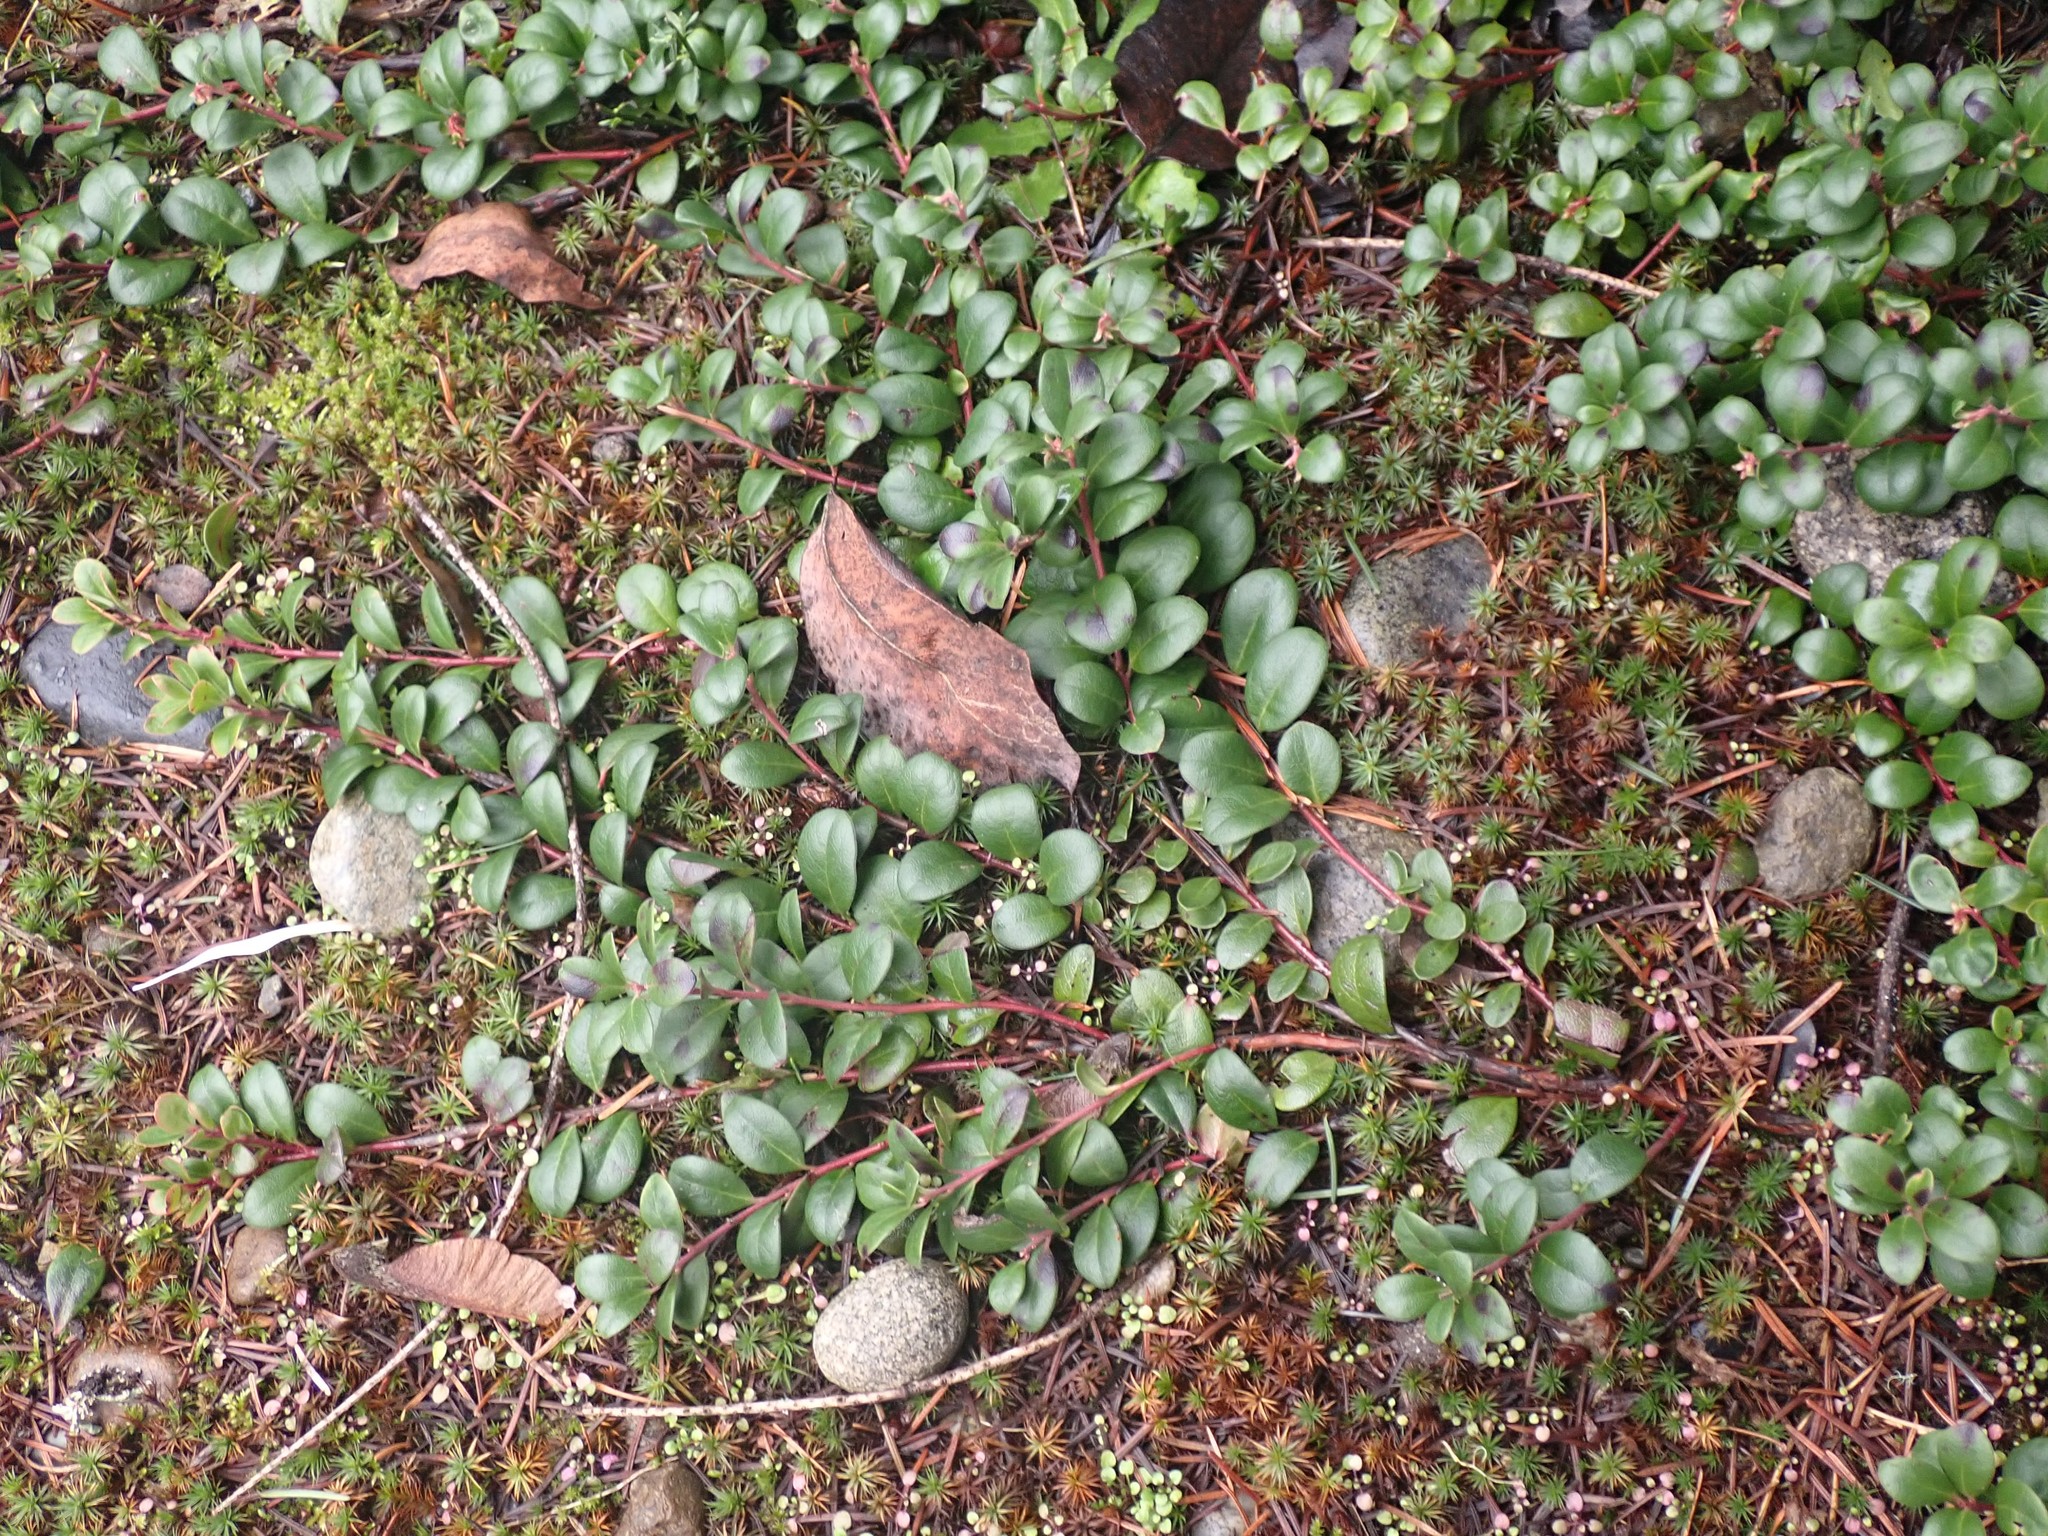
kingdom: Plantae
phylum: Tracheophyta
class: Magnoliopsida
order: Ericales
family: Ericaceae
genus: Arctostaphylos
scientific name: Arctostaphylos uva-ursi
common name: Bearberry
